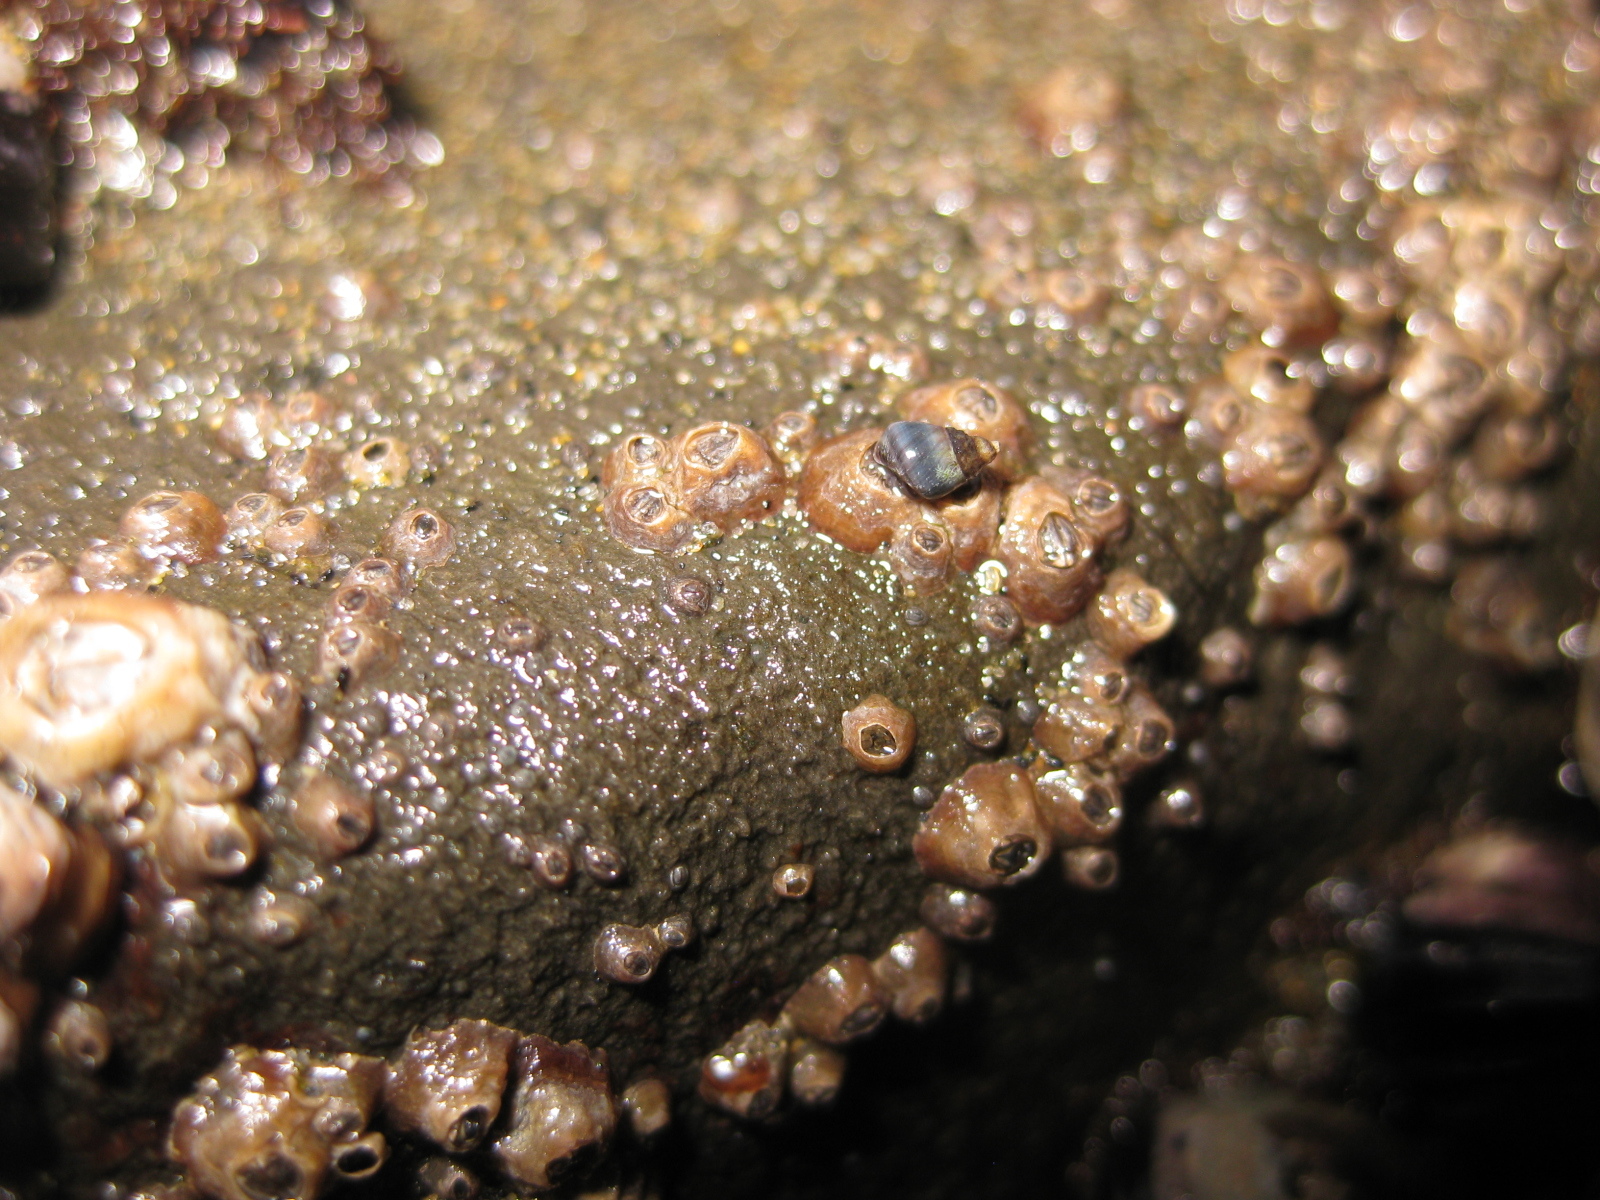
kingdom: Animalia
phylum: Mollusca
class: Gastropoda
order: Littorinimorpha
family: Littorinidae
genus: Austrolittorina
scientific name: Austrolittorina antipodum
